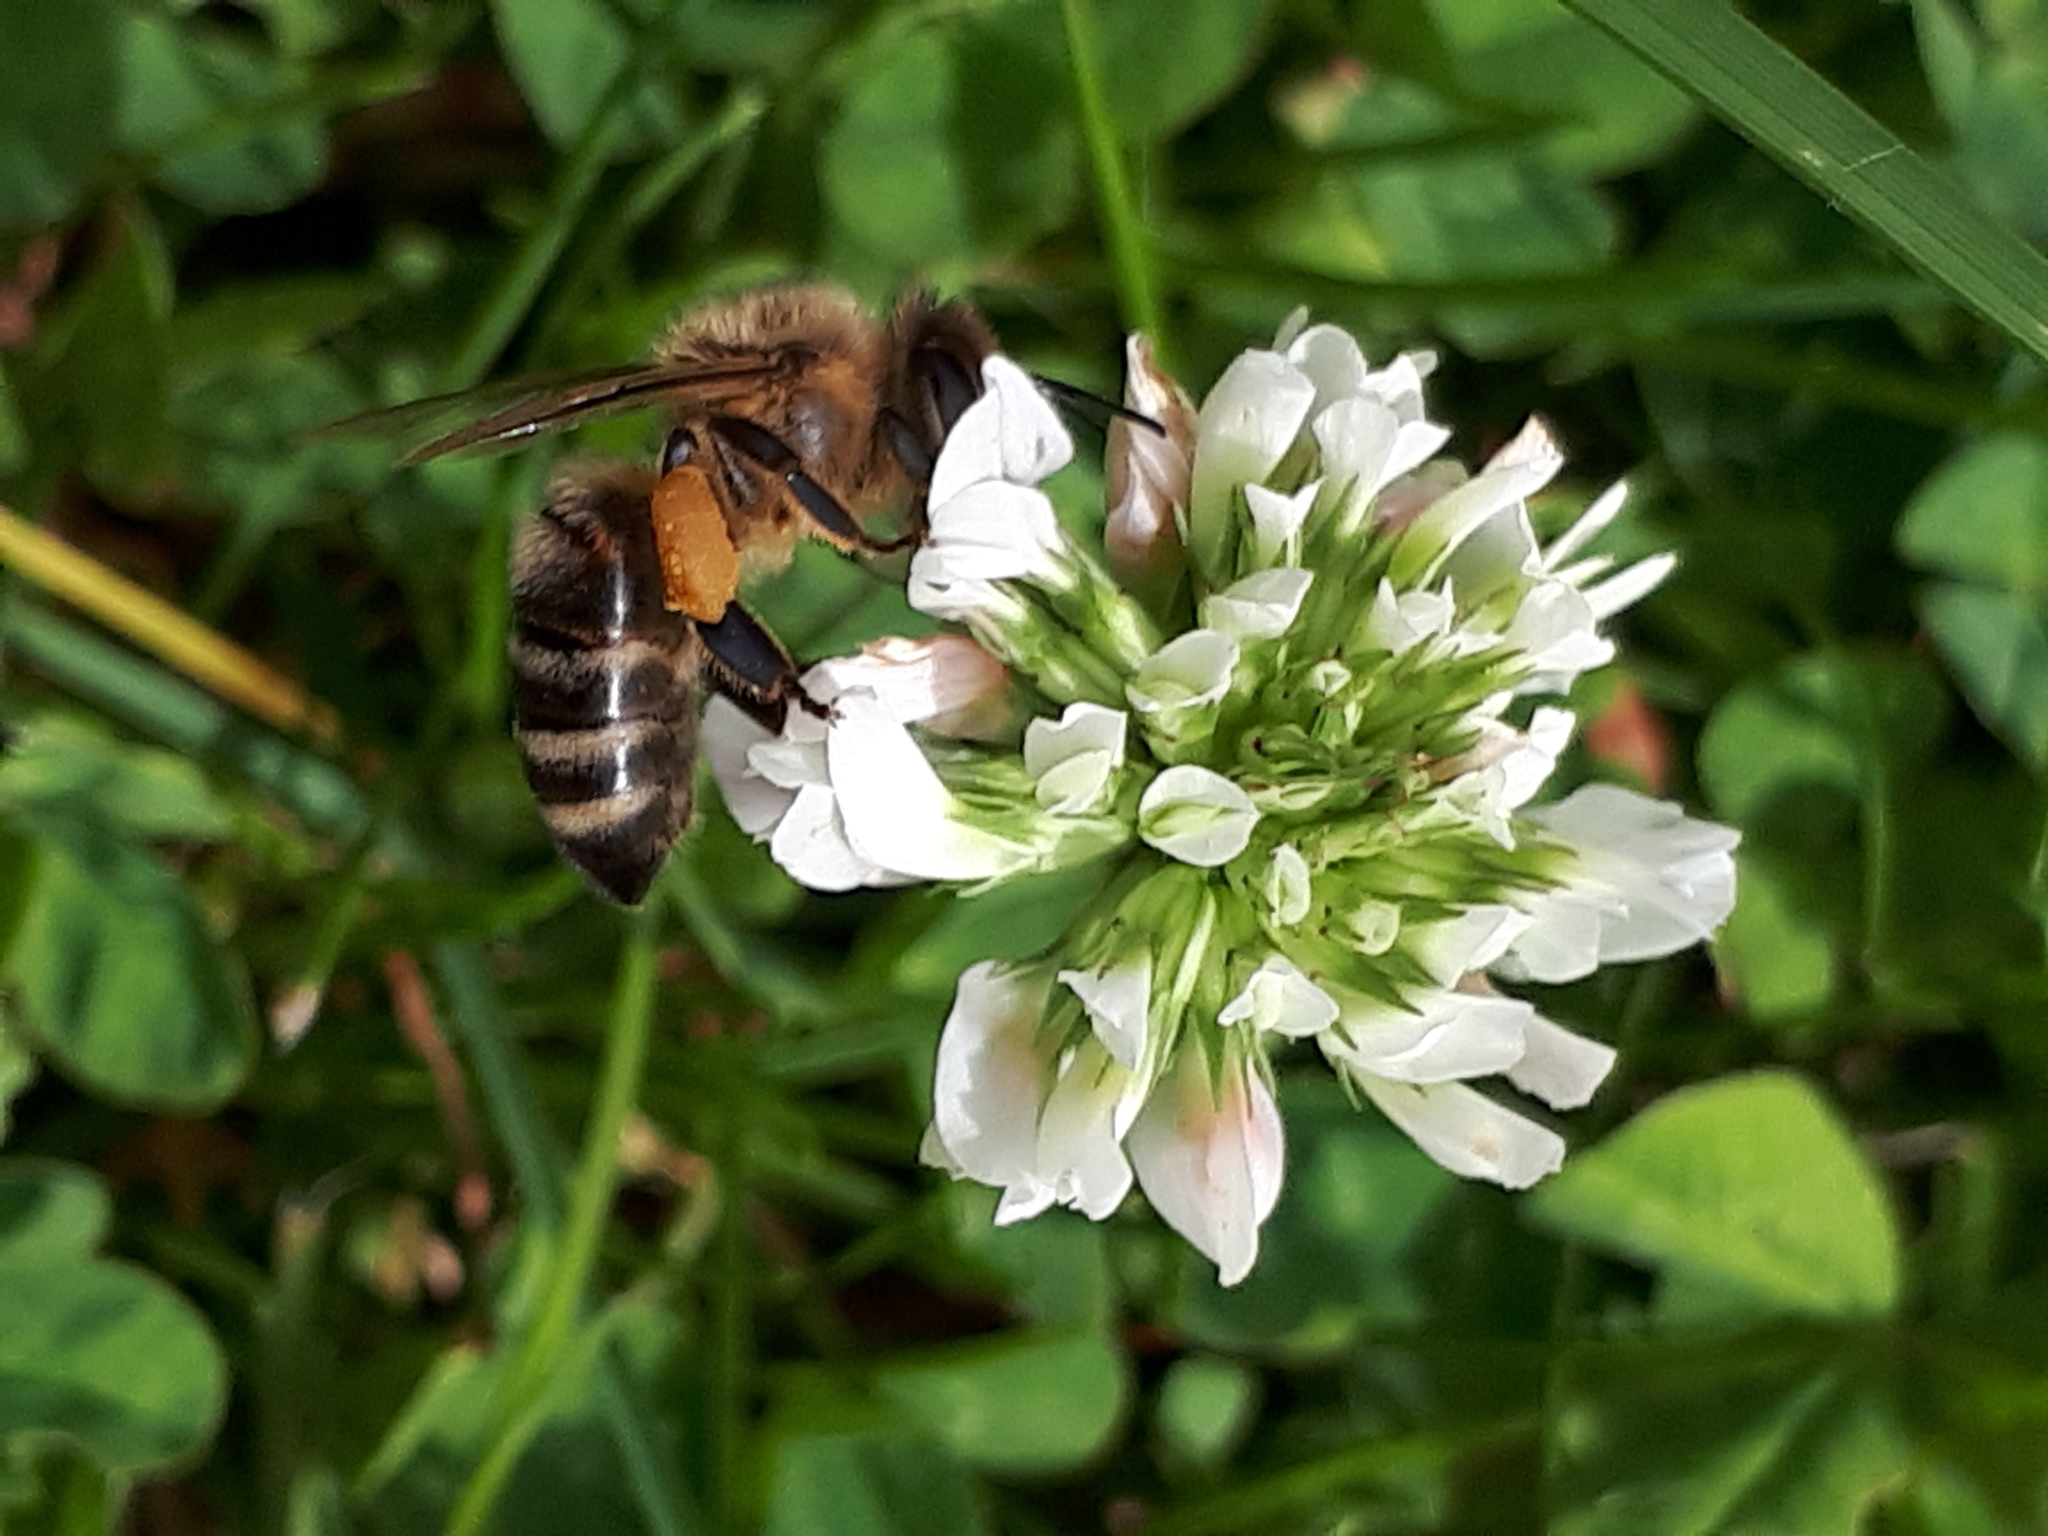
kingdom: Plantae
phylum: Tracheophyta
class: Magnoliopsida
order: Fabales
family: Fabaceae
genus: Trifolium
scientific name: Trifolium repens
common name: White clover
